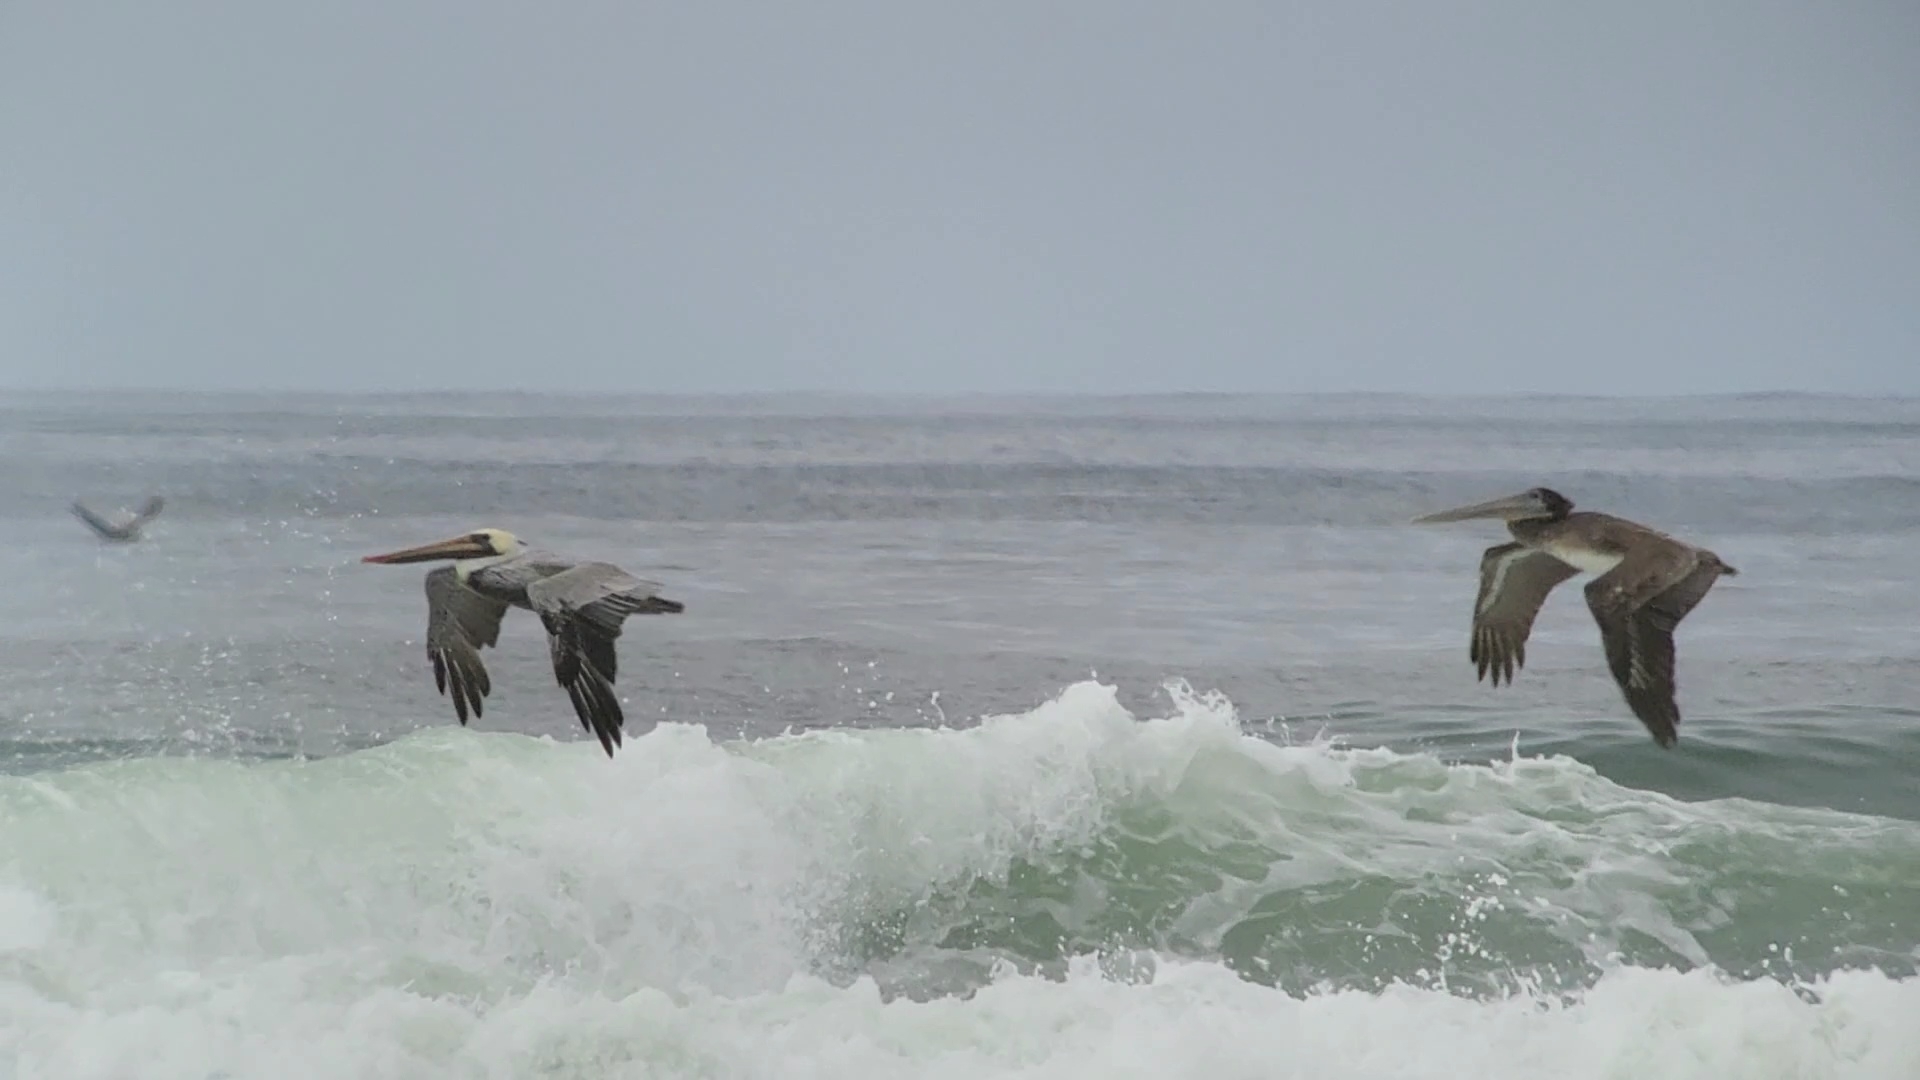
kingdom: Animalia
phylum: Chordata
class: Aves
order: Pelecaniformes
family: Pelecanidae
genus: Pelecanus
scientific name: Pelecanus occidentalis
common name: Brown pelican
